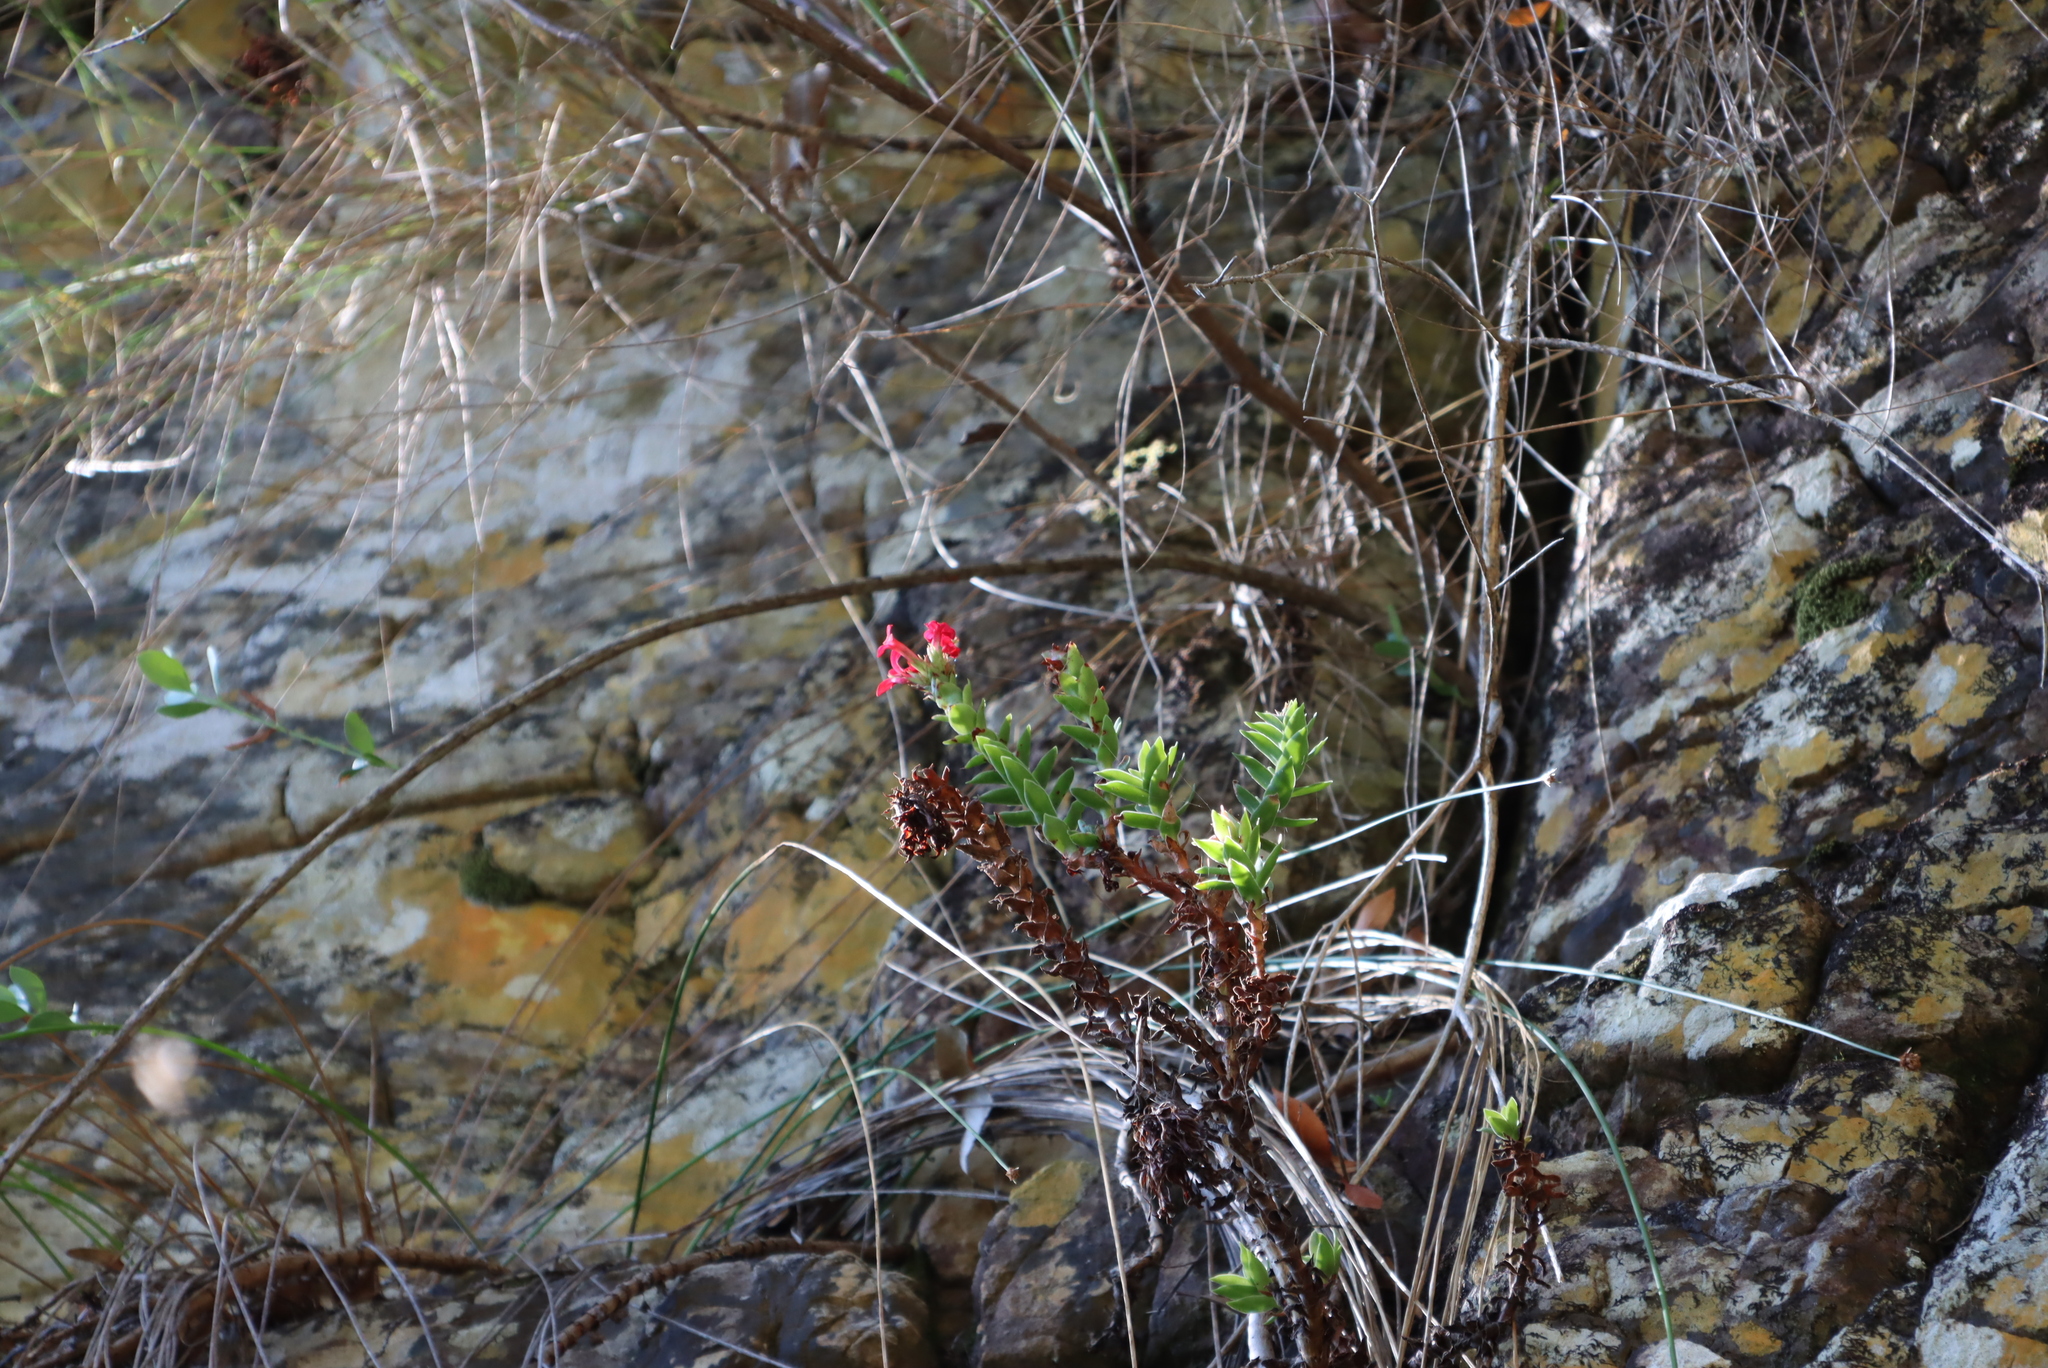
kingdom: Plantae
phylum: Tracheophyta
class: Magnoliopsida
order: Saxifragales
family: Crassulaceae
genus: Crassula
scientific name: Crassula coccinea
